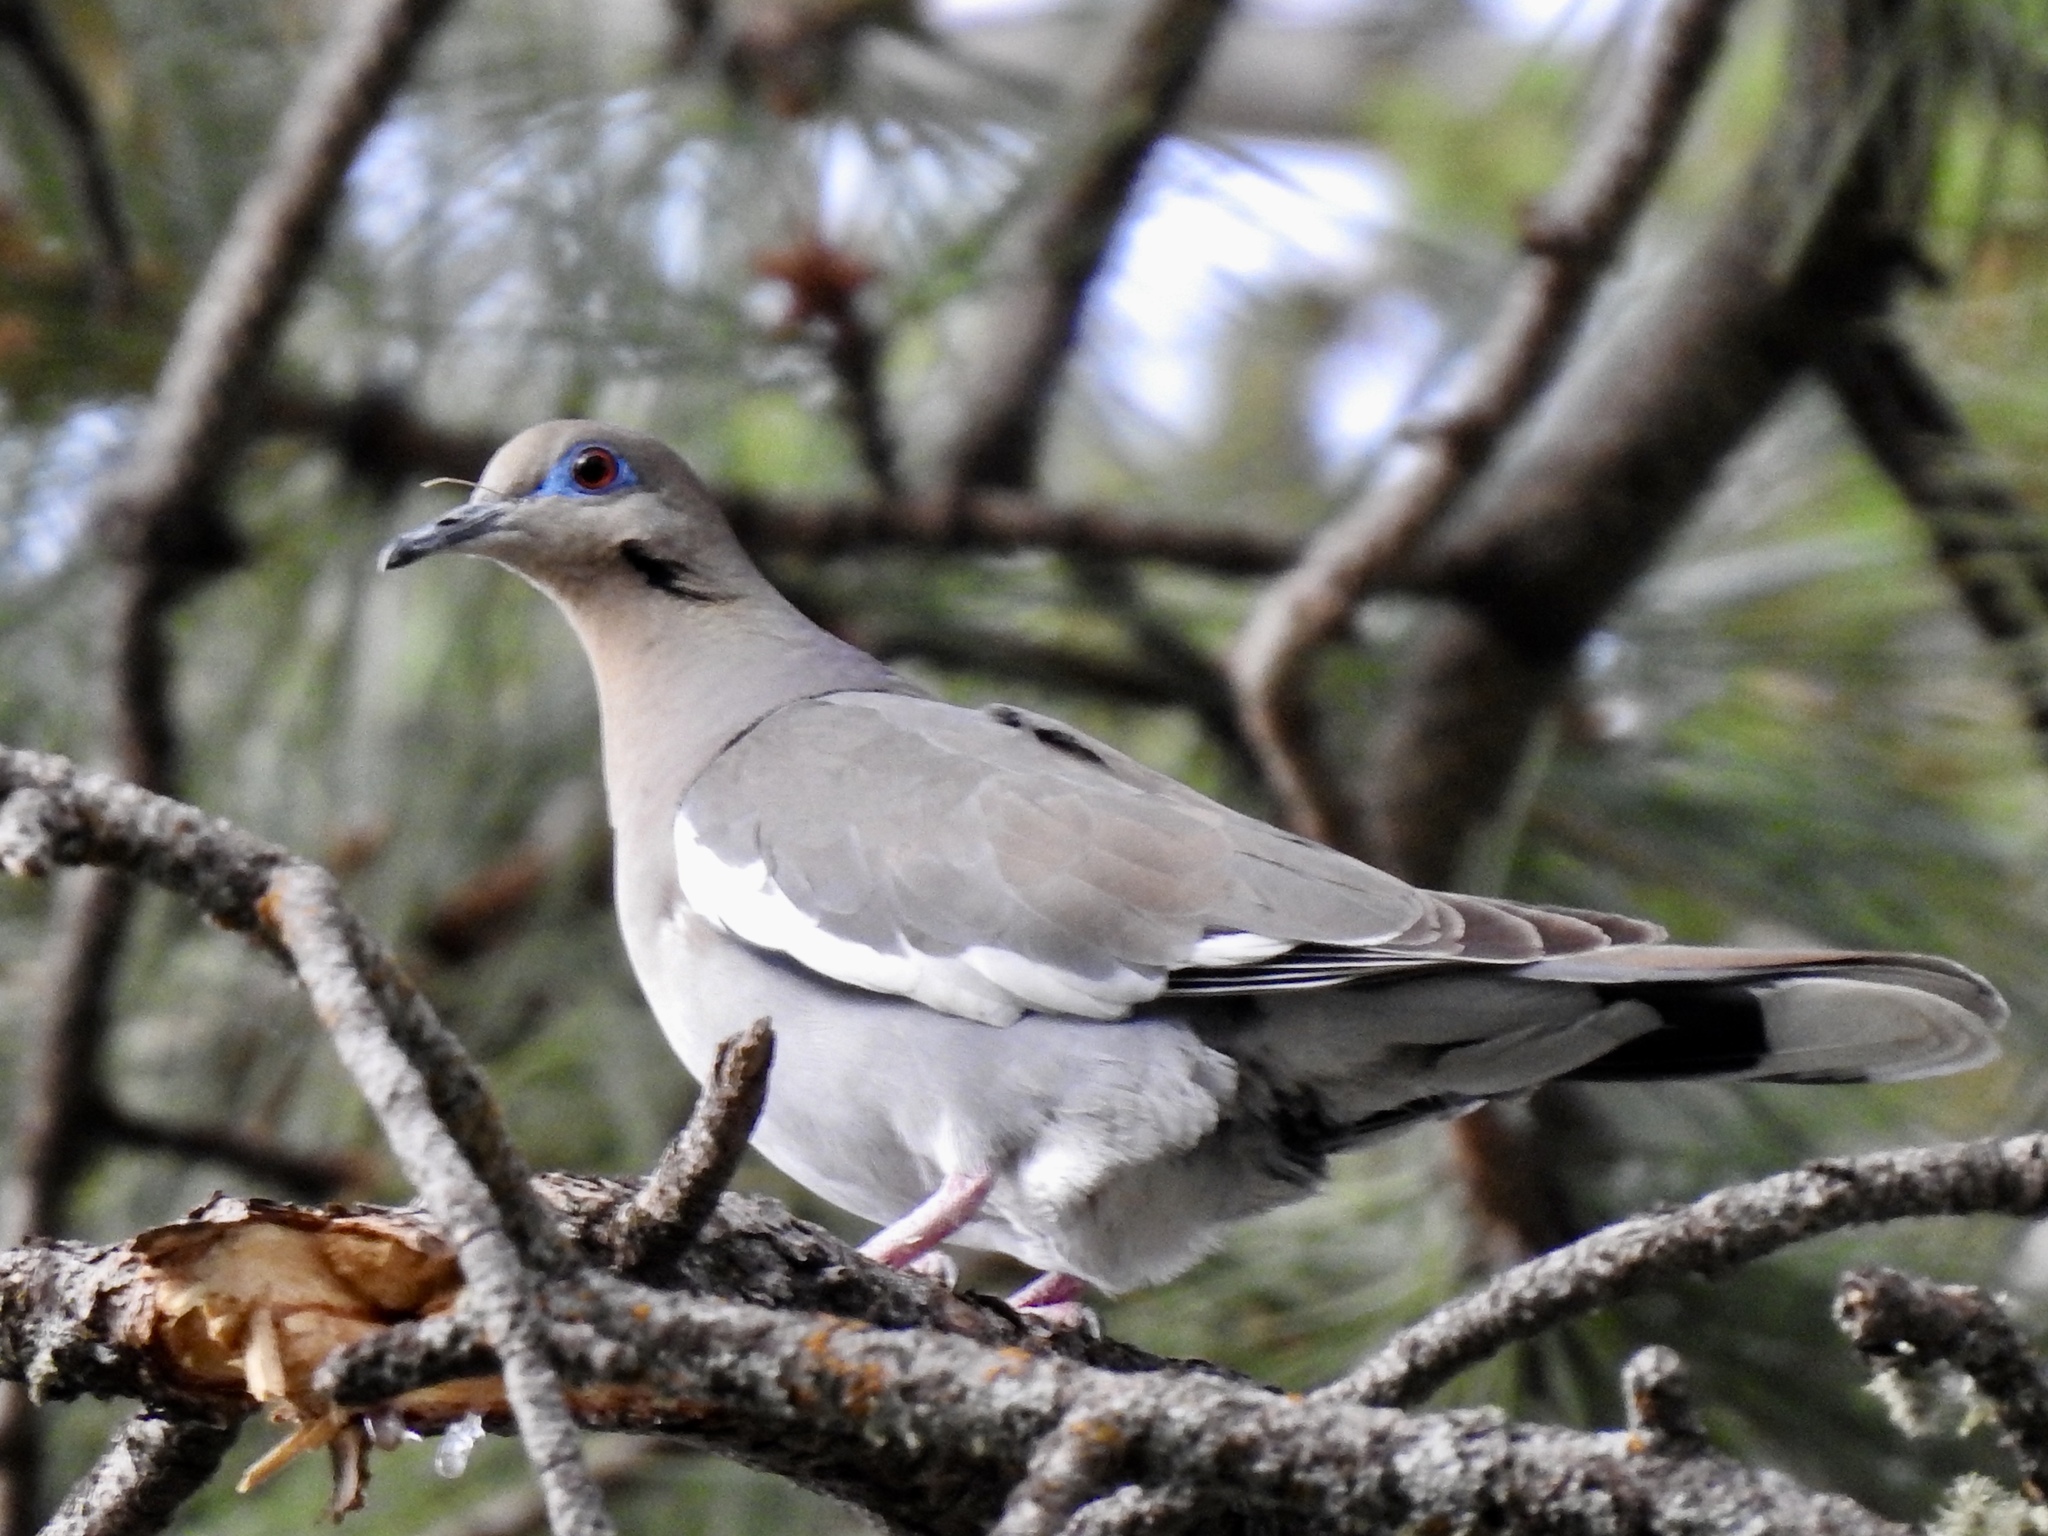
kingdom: Animalia
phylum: Chordata
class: Aves
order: Columbiformes
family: Columbidae
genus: Zenaida
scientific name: Zenaida asiatica
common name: White-winged dove
